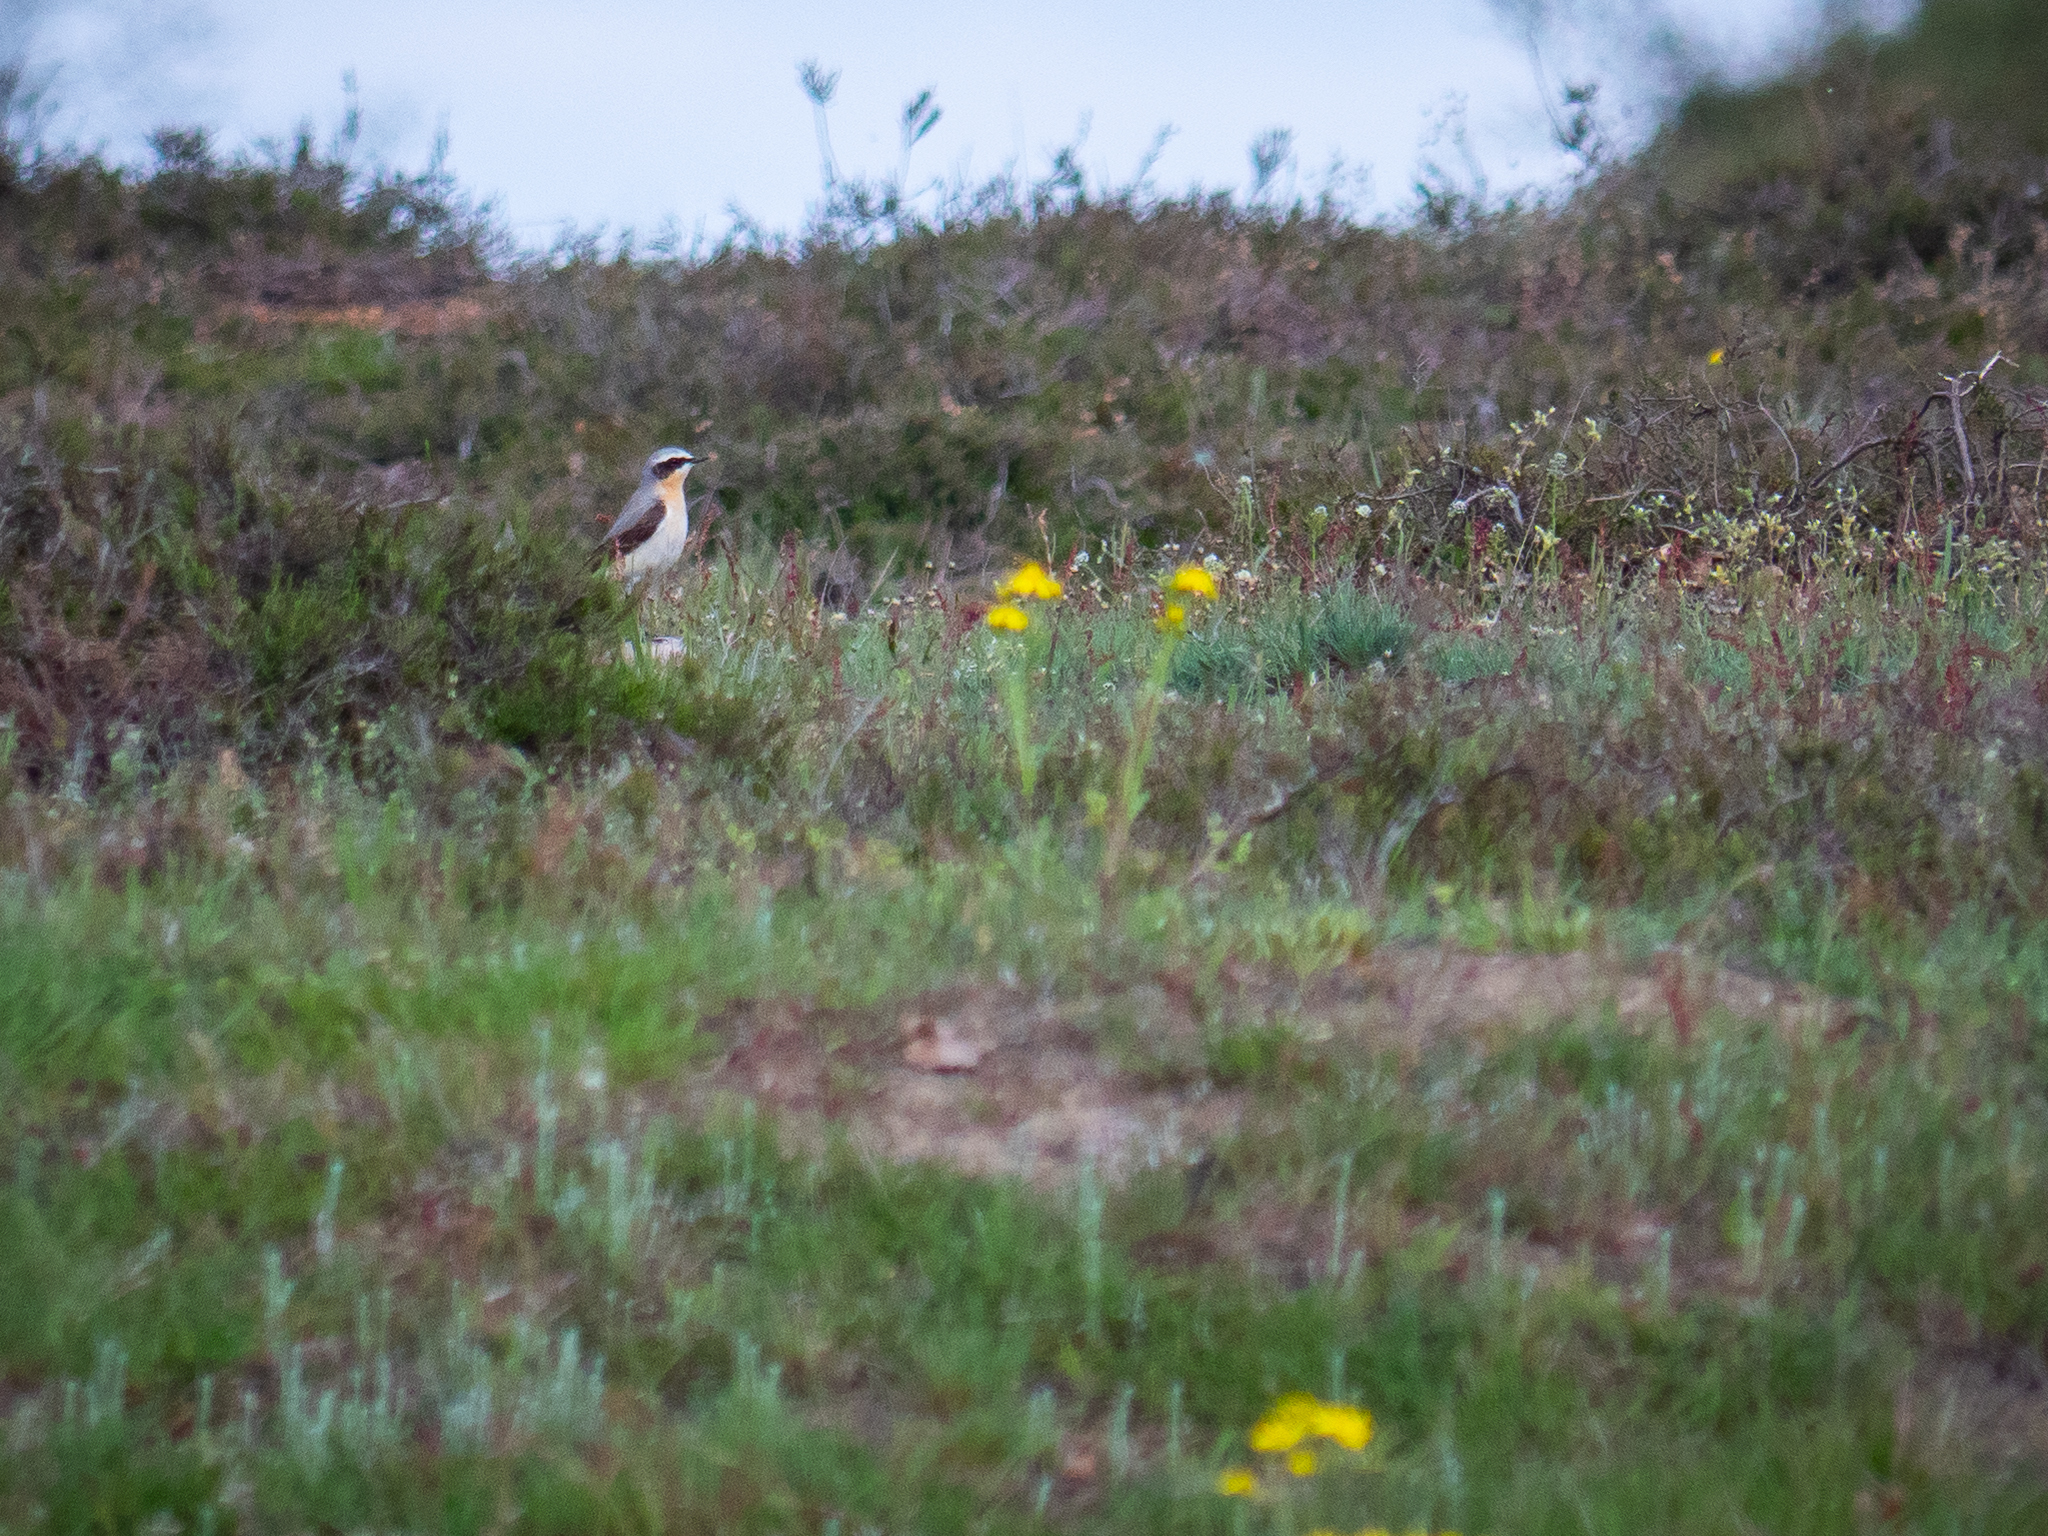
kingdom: Animalia
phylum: Chordata
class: Aves
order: Passeriformes
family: Muscicapidae
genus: Oenanthe
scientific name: Oenanthe oenanthe
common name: Northern wheatear
